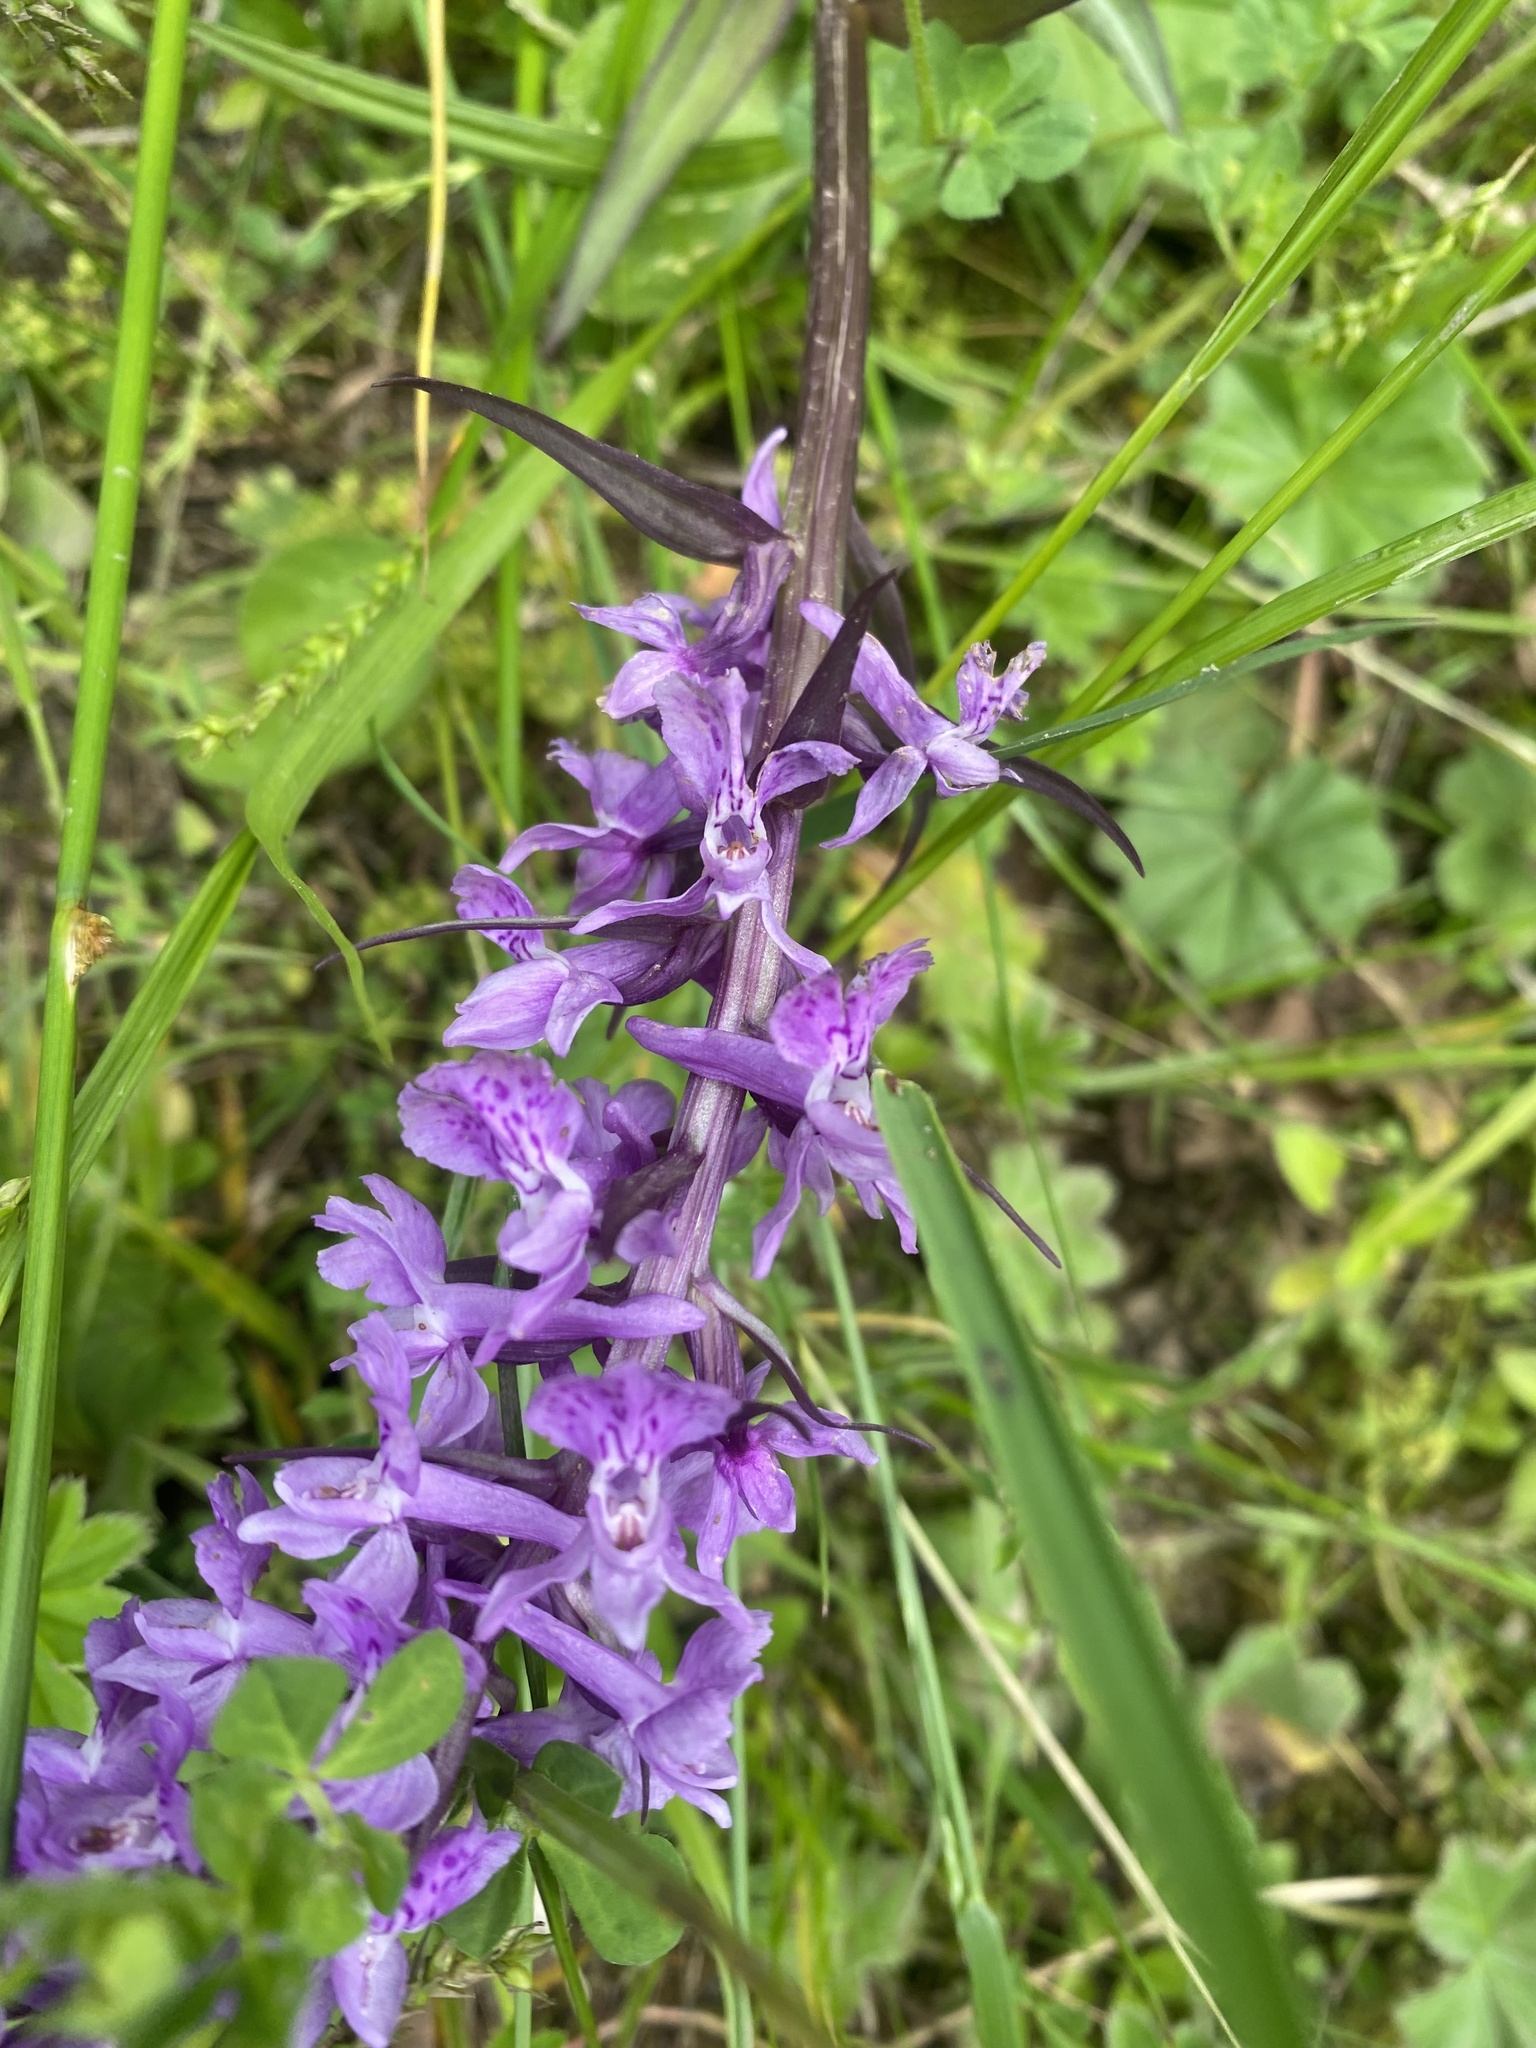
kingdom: Plantae
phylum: Tracheophyta
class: Liliopsida
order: Asparagales
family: Orchidaceae
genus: Dactylorhiza
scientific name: Dactylorhiza urvilleana
